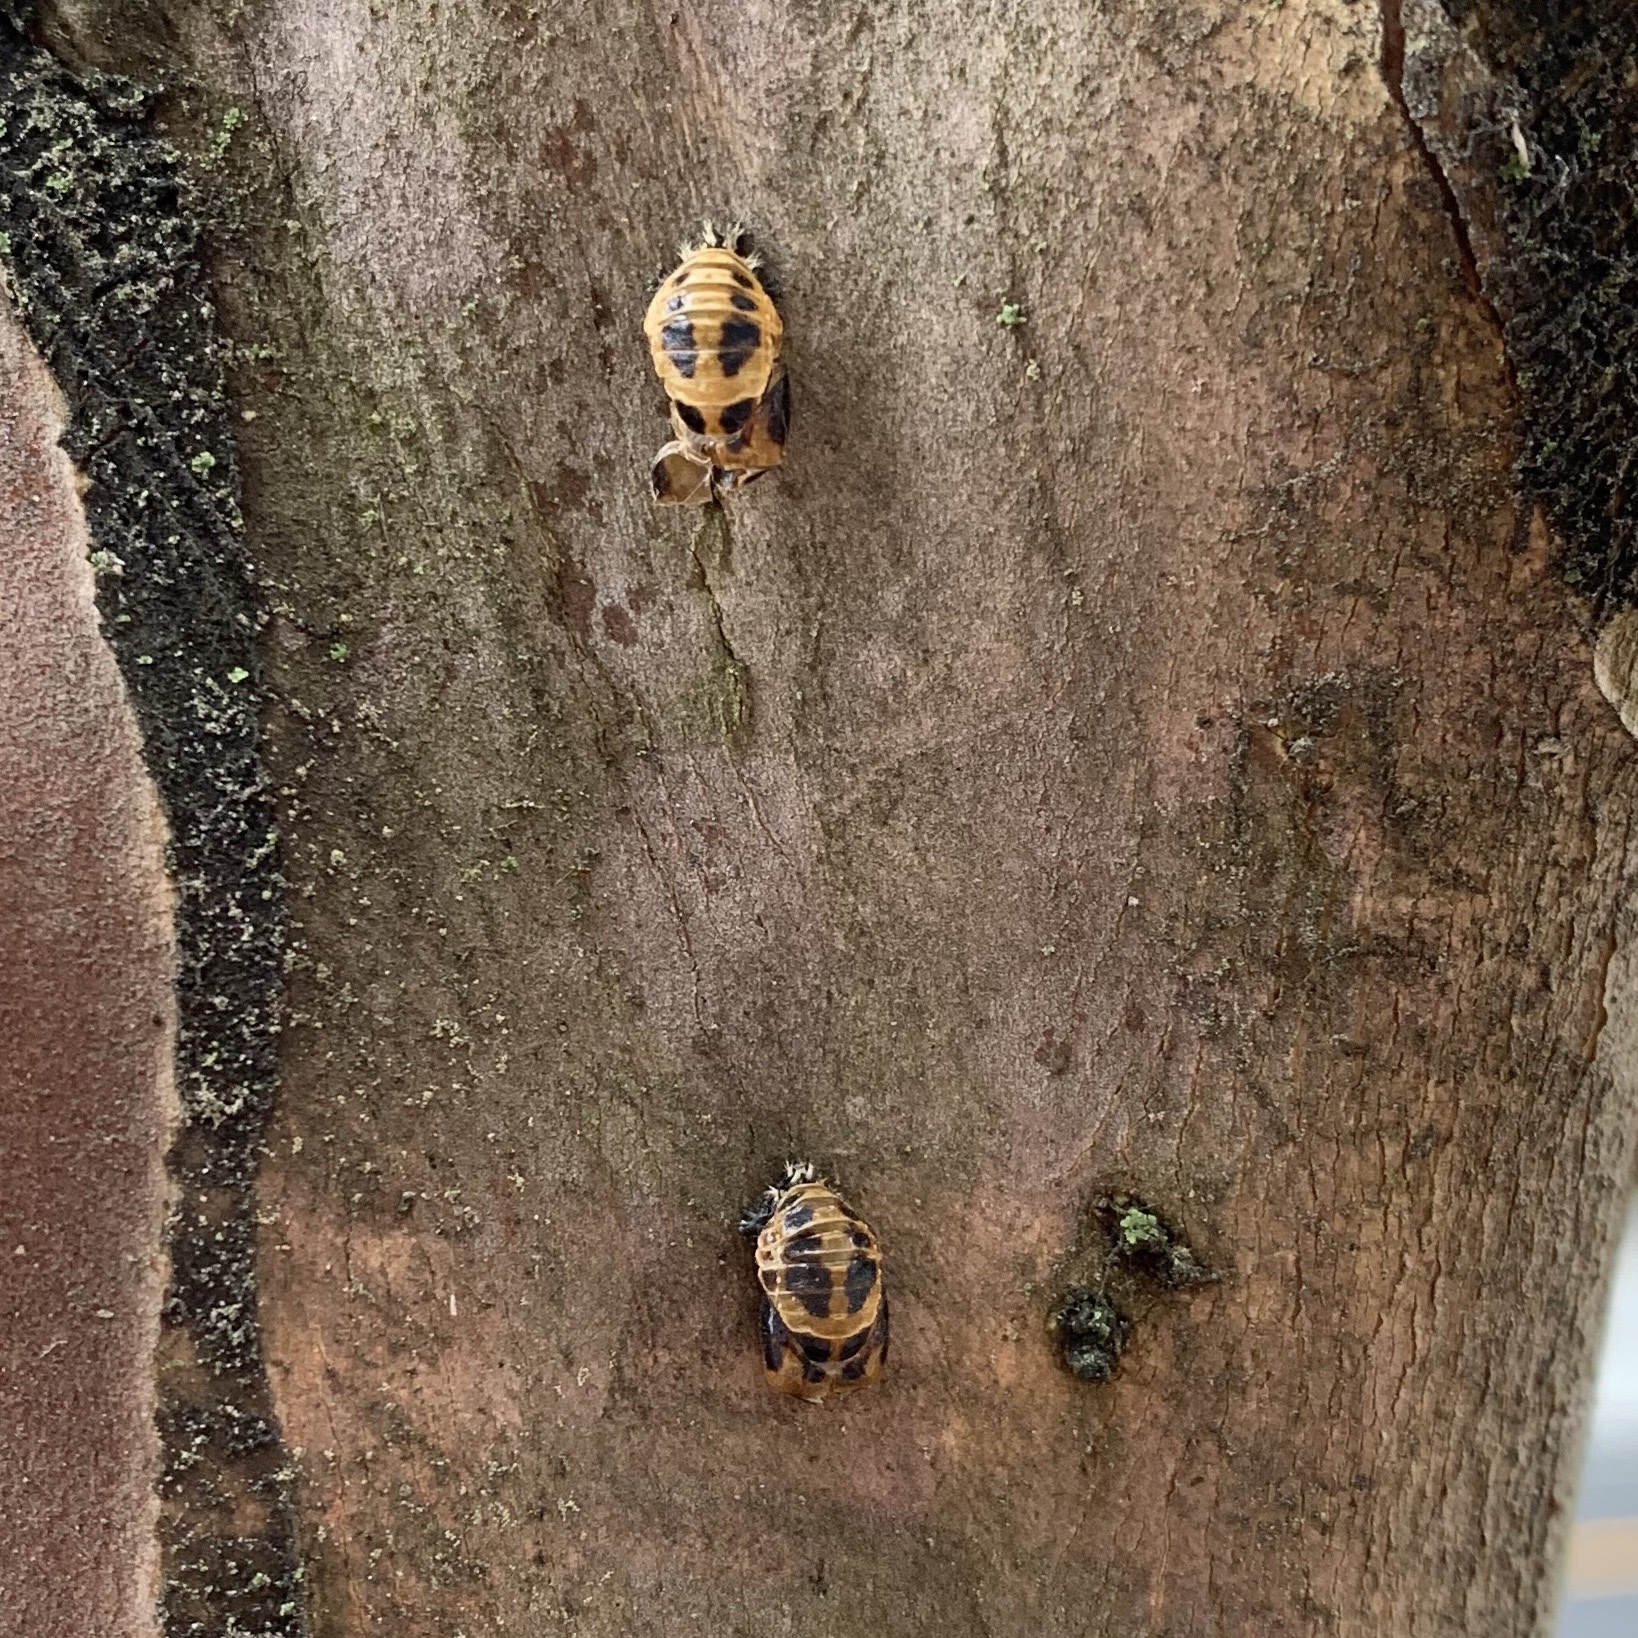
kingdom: Animalia
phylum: Arthropoda
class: Insecta
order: Coleoptera
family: Coccinellidae
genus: Harmonia
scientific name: Harmonia axyridis
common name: Harlequin ladybird
